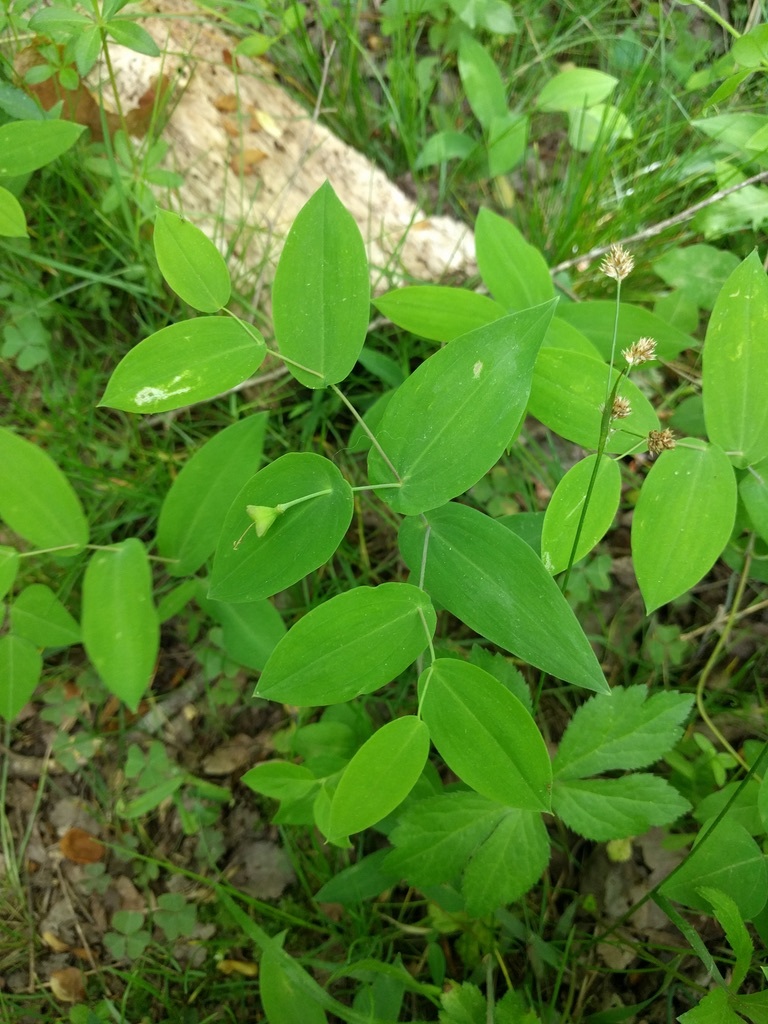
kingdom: Plantae
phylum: Tracheophyta
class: Liliopsida
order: Liliales
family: Colchicaceae
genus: Uvularia
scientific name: Uvularia perfoliata
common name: Perfoliate bellwort
